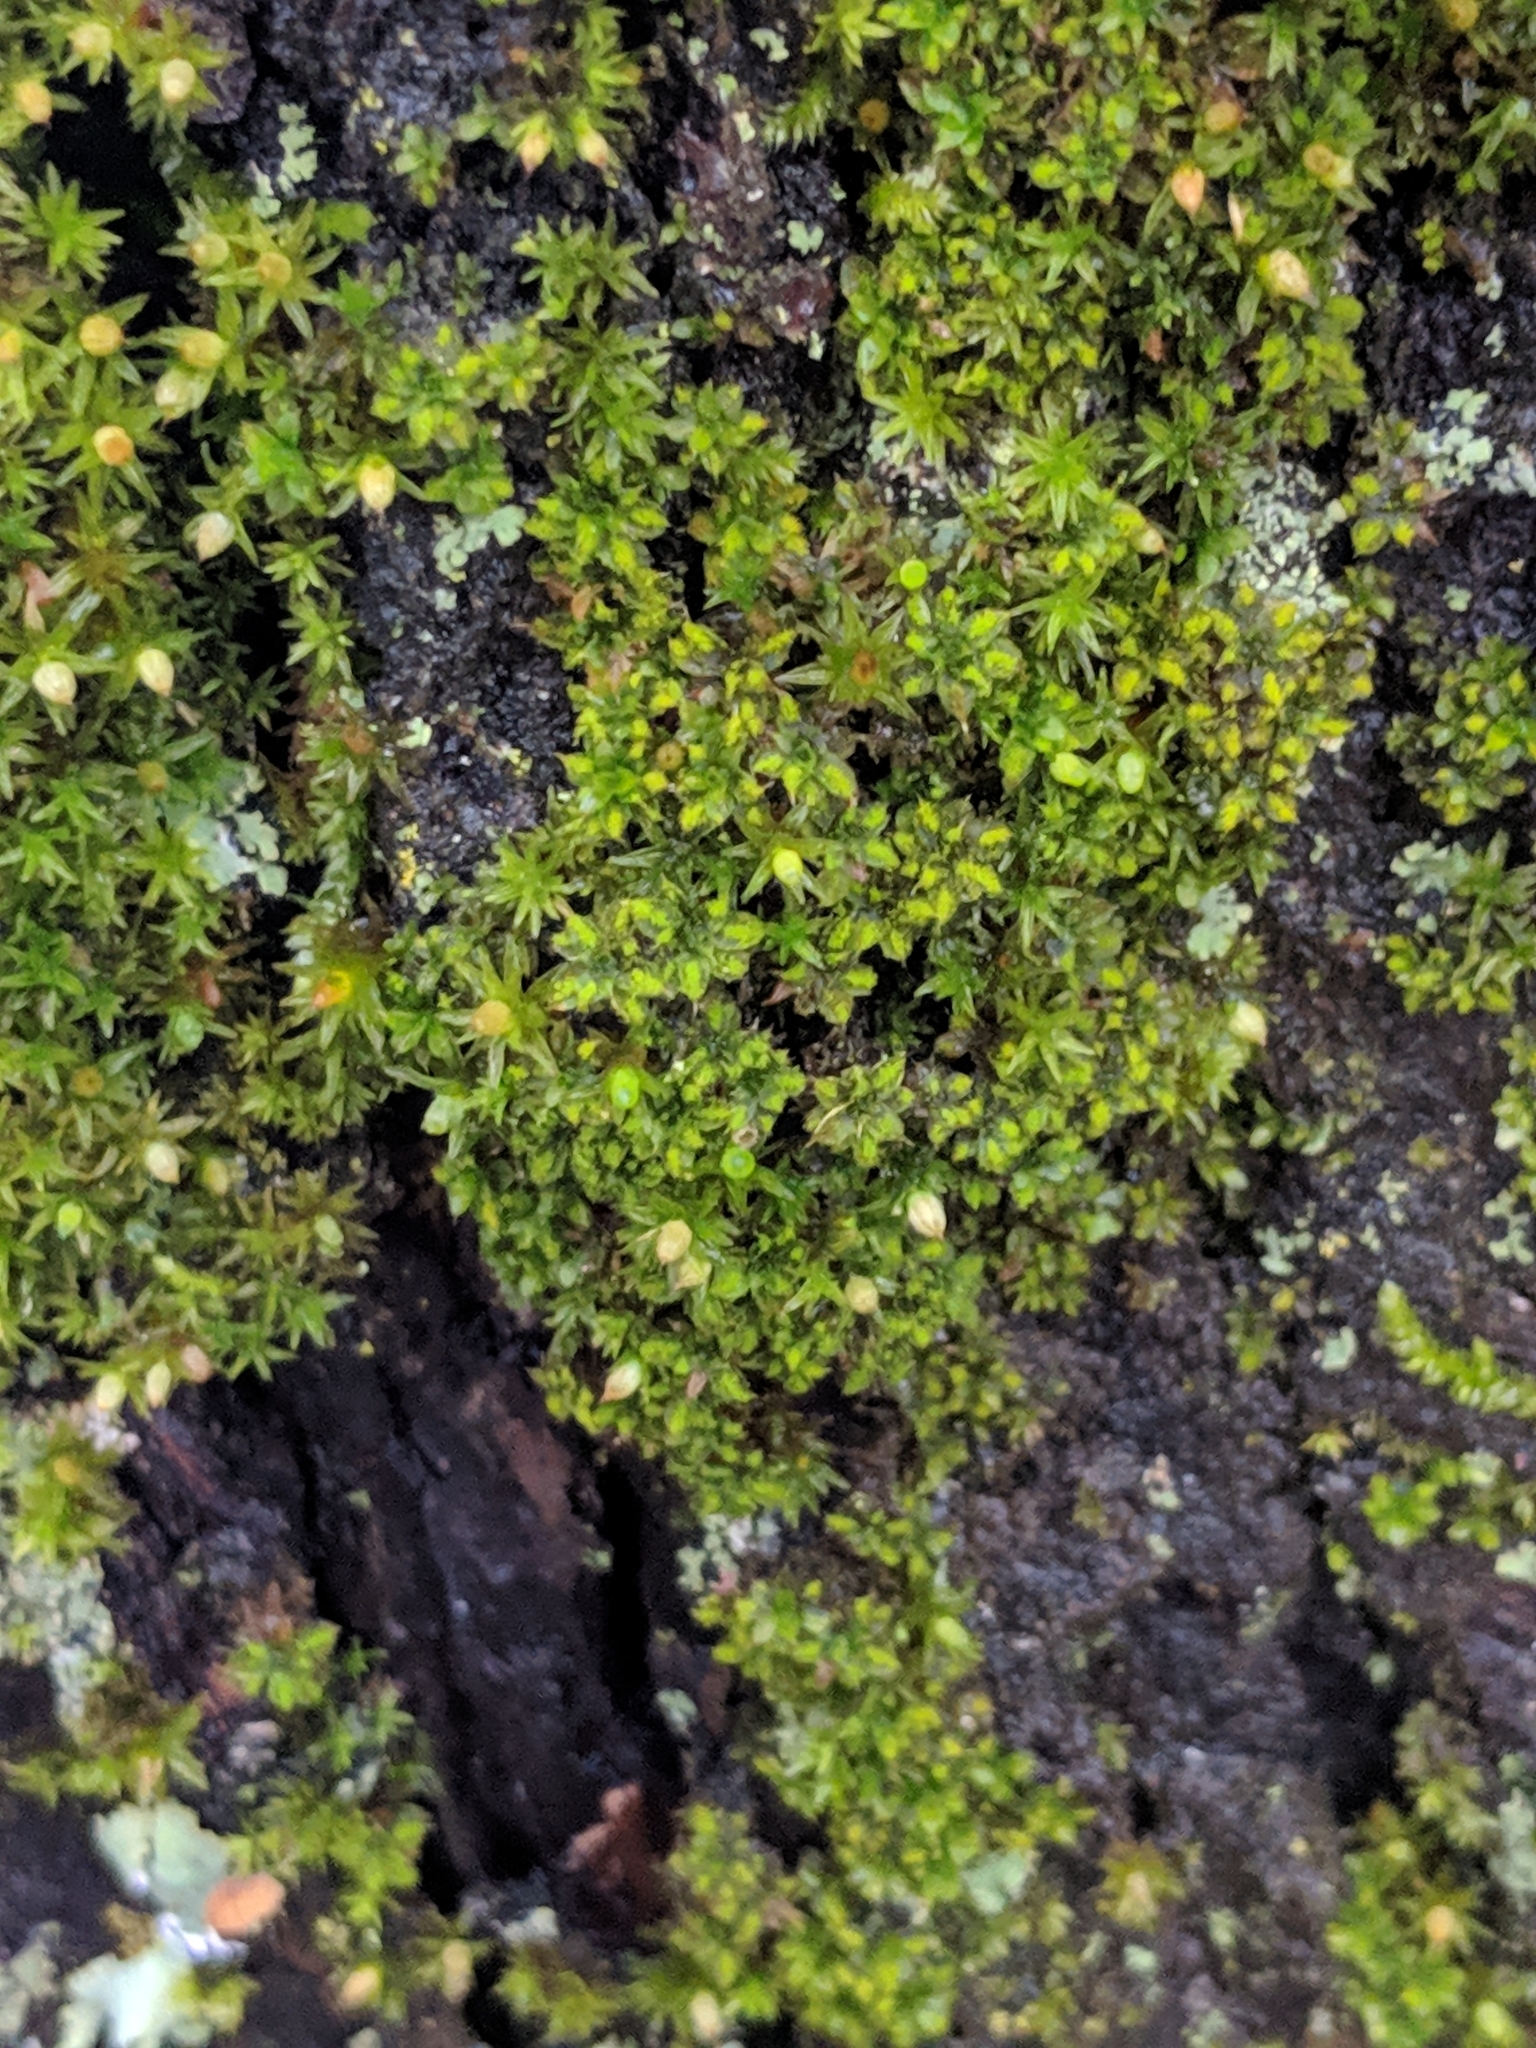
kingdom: Plantae
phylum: Bryophyta
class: Bryopsida
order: Pottiales
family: Pottiaceae
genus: Syntrichia
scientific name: Syntrichia papillosa
